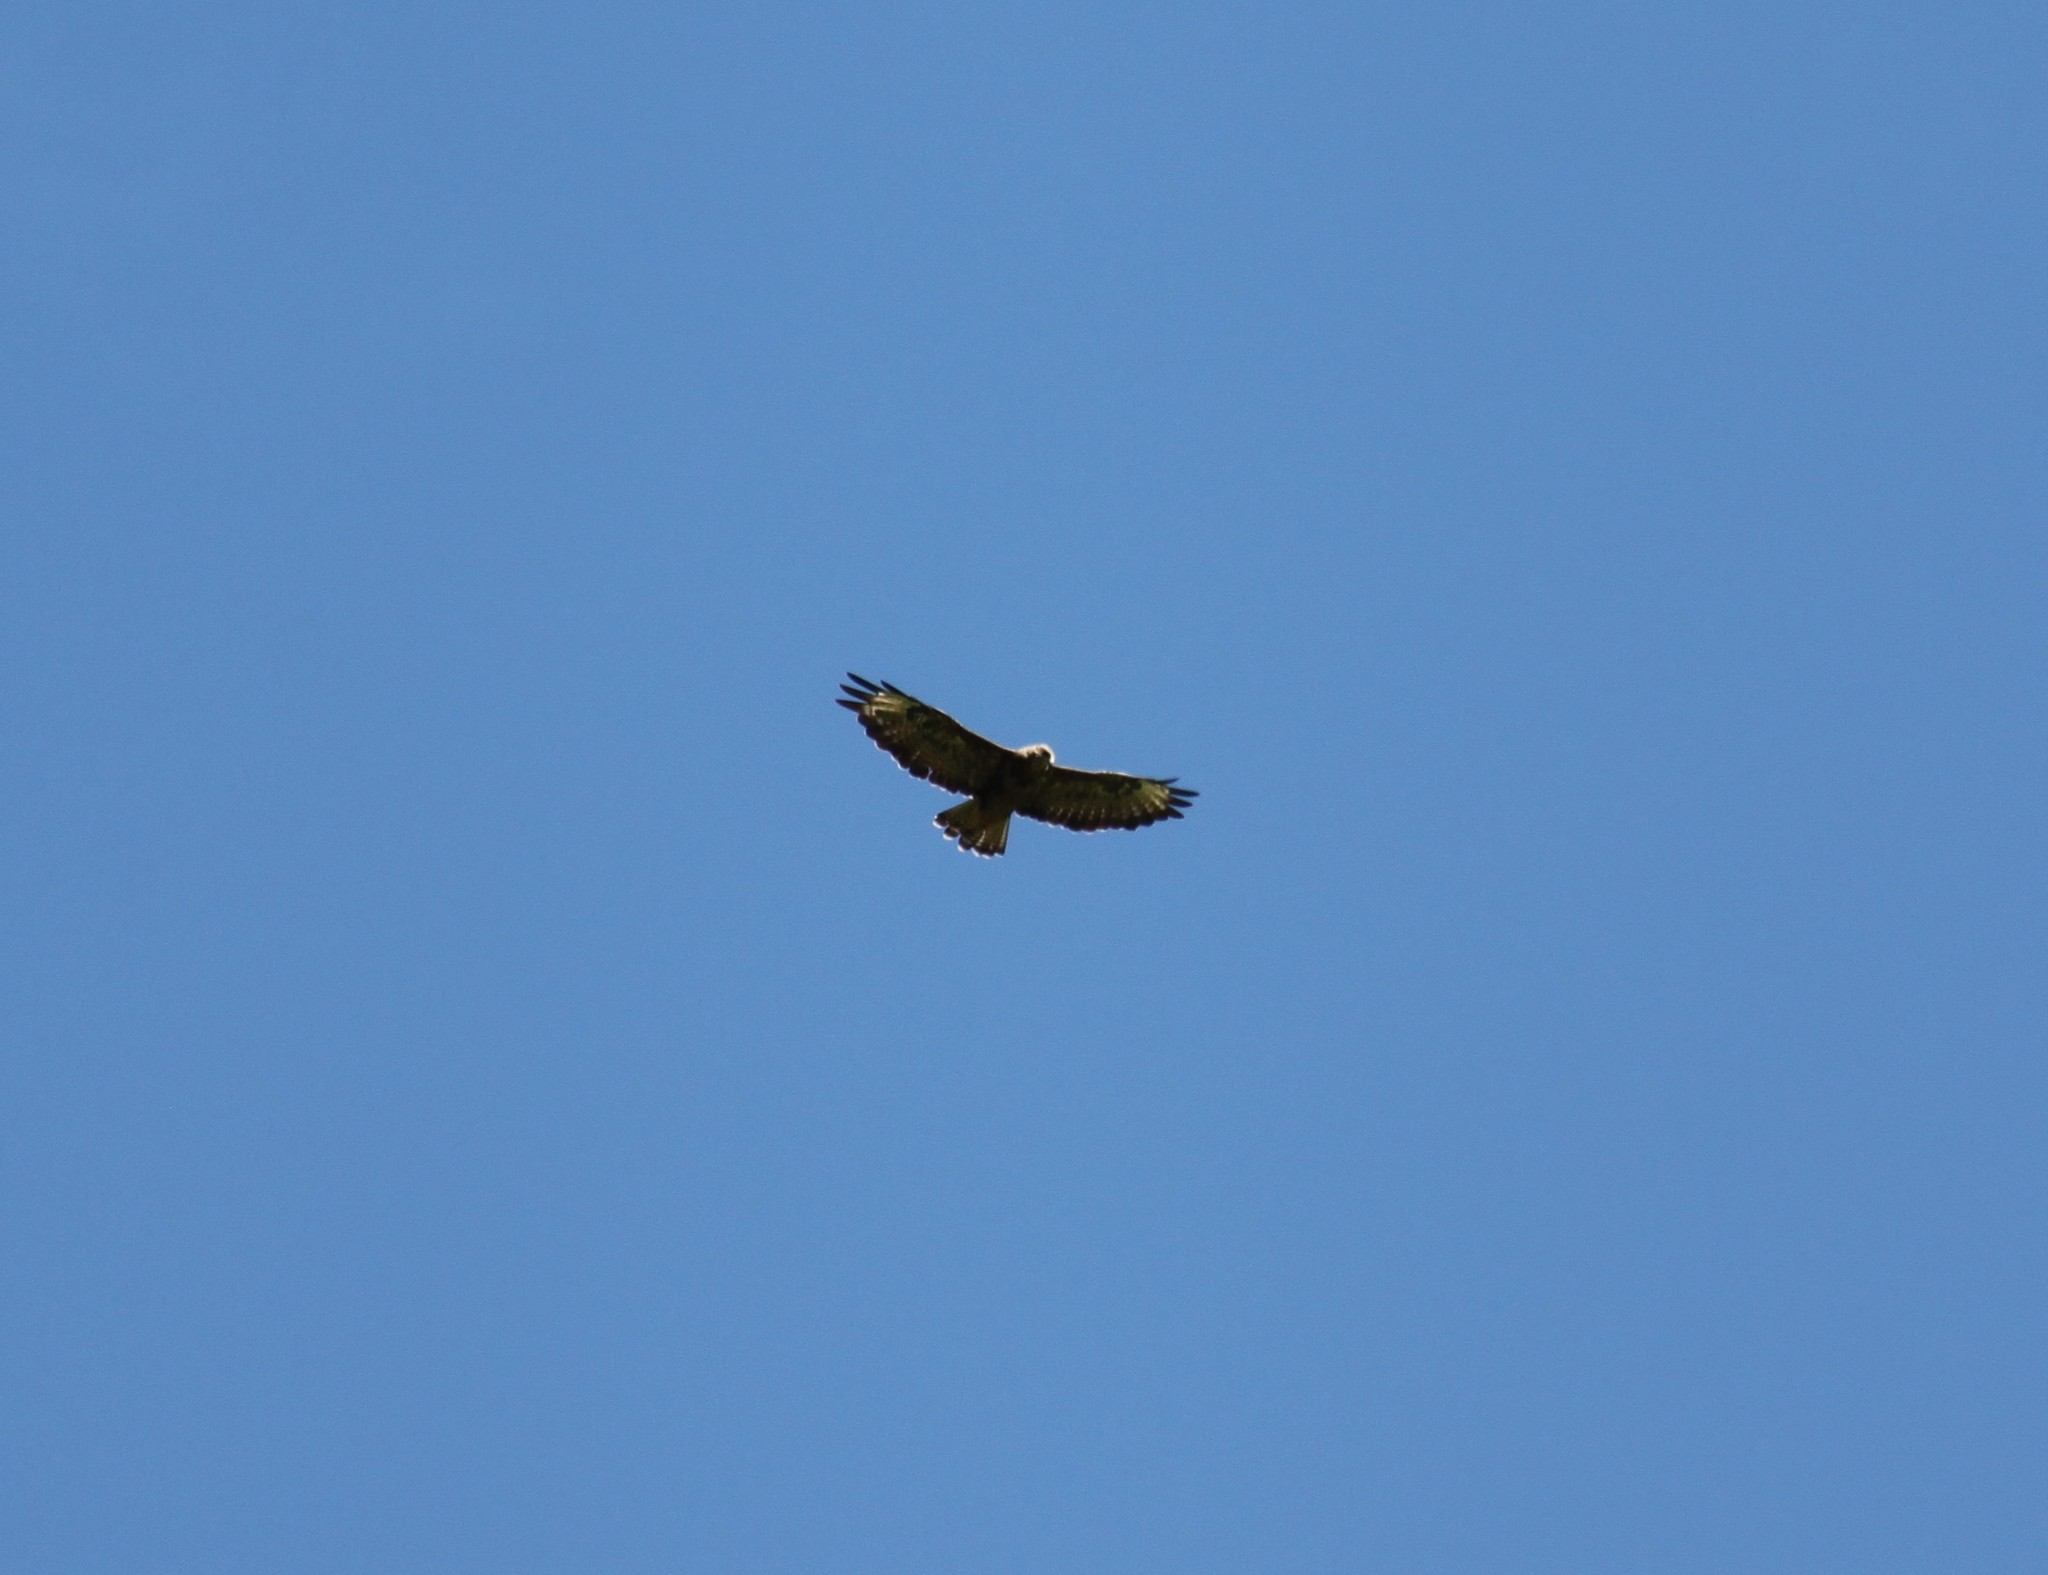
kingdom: Animalia
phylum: Chordata
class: Aves
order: Accipitriformes
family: Accipitridae
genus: Buteo
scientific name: Buteo buteo
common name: Common buzzard
